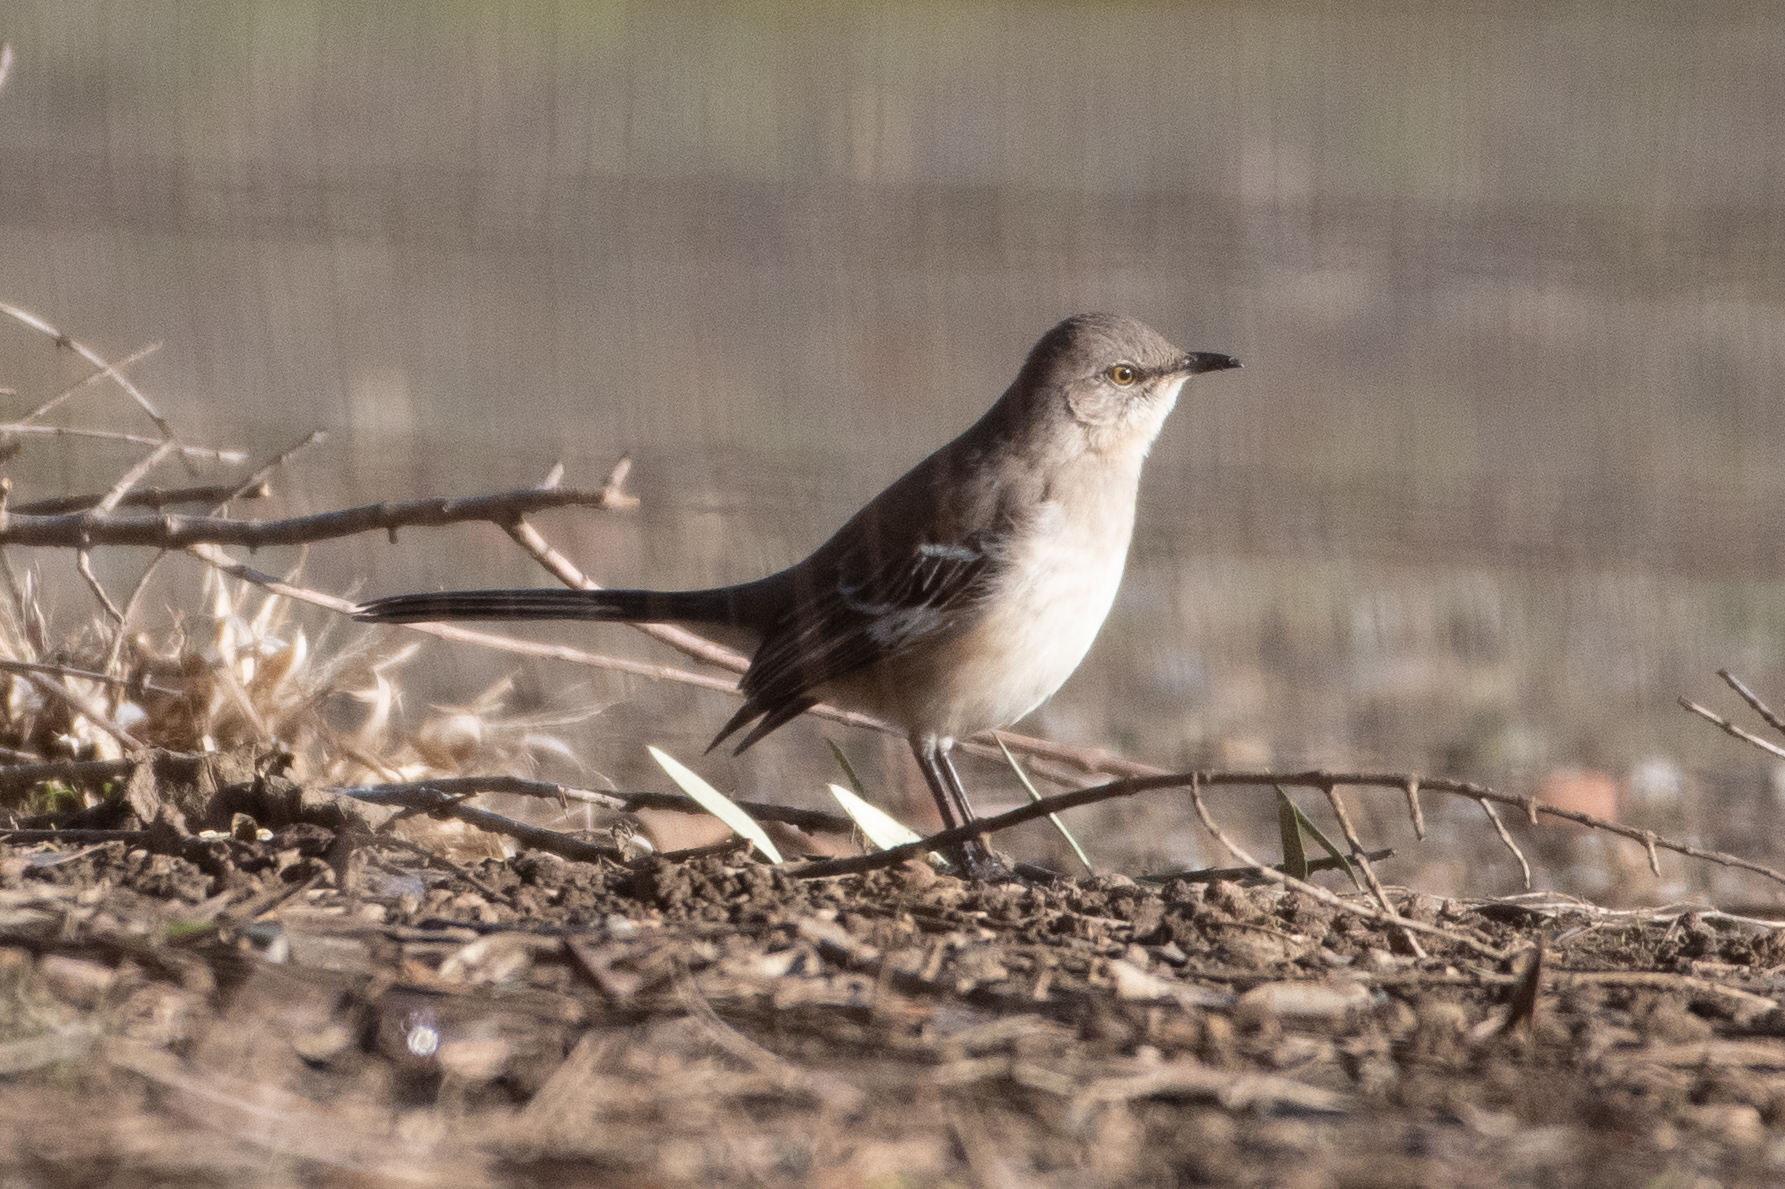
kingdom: Animalia
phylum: Chordata
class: Aves
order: Passeriformes
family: Mimidae
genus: Mimus
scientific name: Mimus polyglottos
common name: Northern mockingbird
